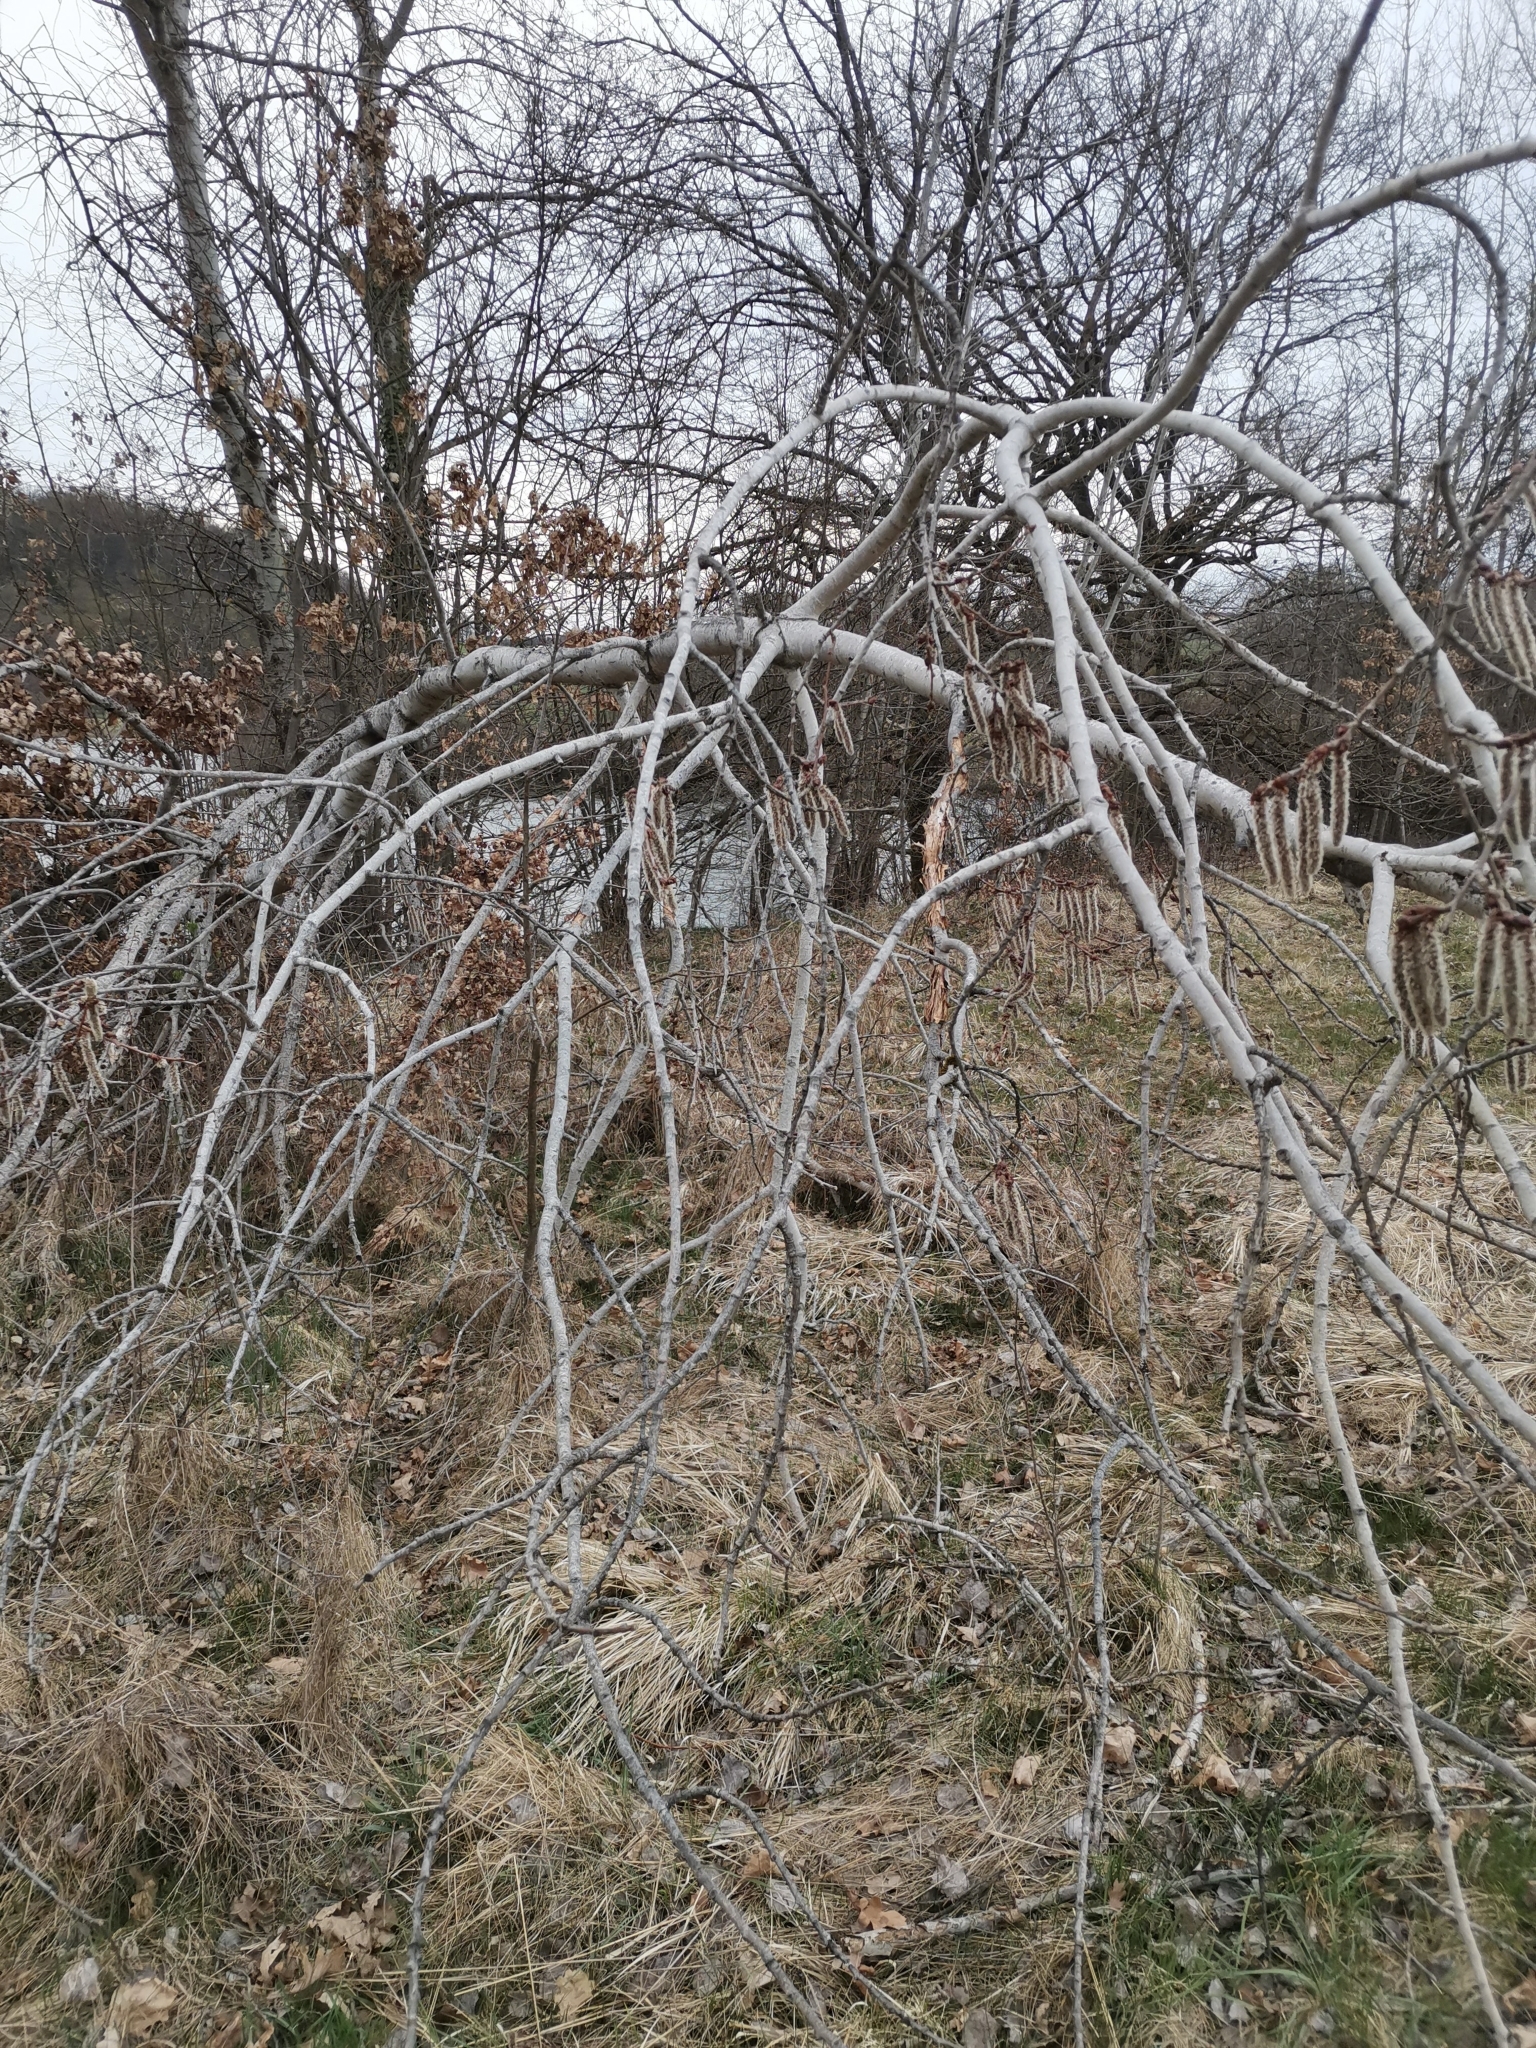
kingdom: Plantae
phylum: Tracheophyta
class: Magnoliopsida
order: Malpighiales
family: Salicaceae
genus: Populus
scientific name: Populus tremula
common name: European aspen
